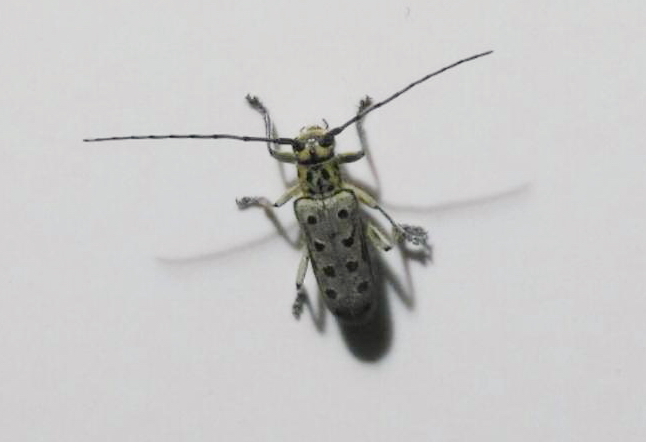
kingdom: Animalia
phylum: Arthropoda
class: Insecta
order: Coleoptera
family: Cerambycidae
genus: Saperda
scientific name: Saperda perforata
